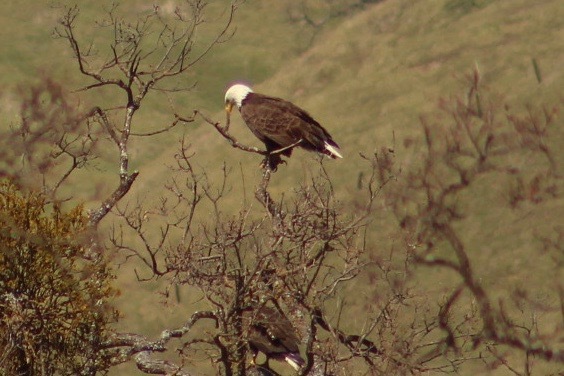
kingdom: Animalia
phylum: Chordata
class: Aves
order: Accipitriformes
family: Accipitridae
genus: Haliaeetus
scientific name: Haliaeetus leucocephalus
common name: Bald eagle
